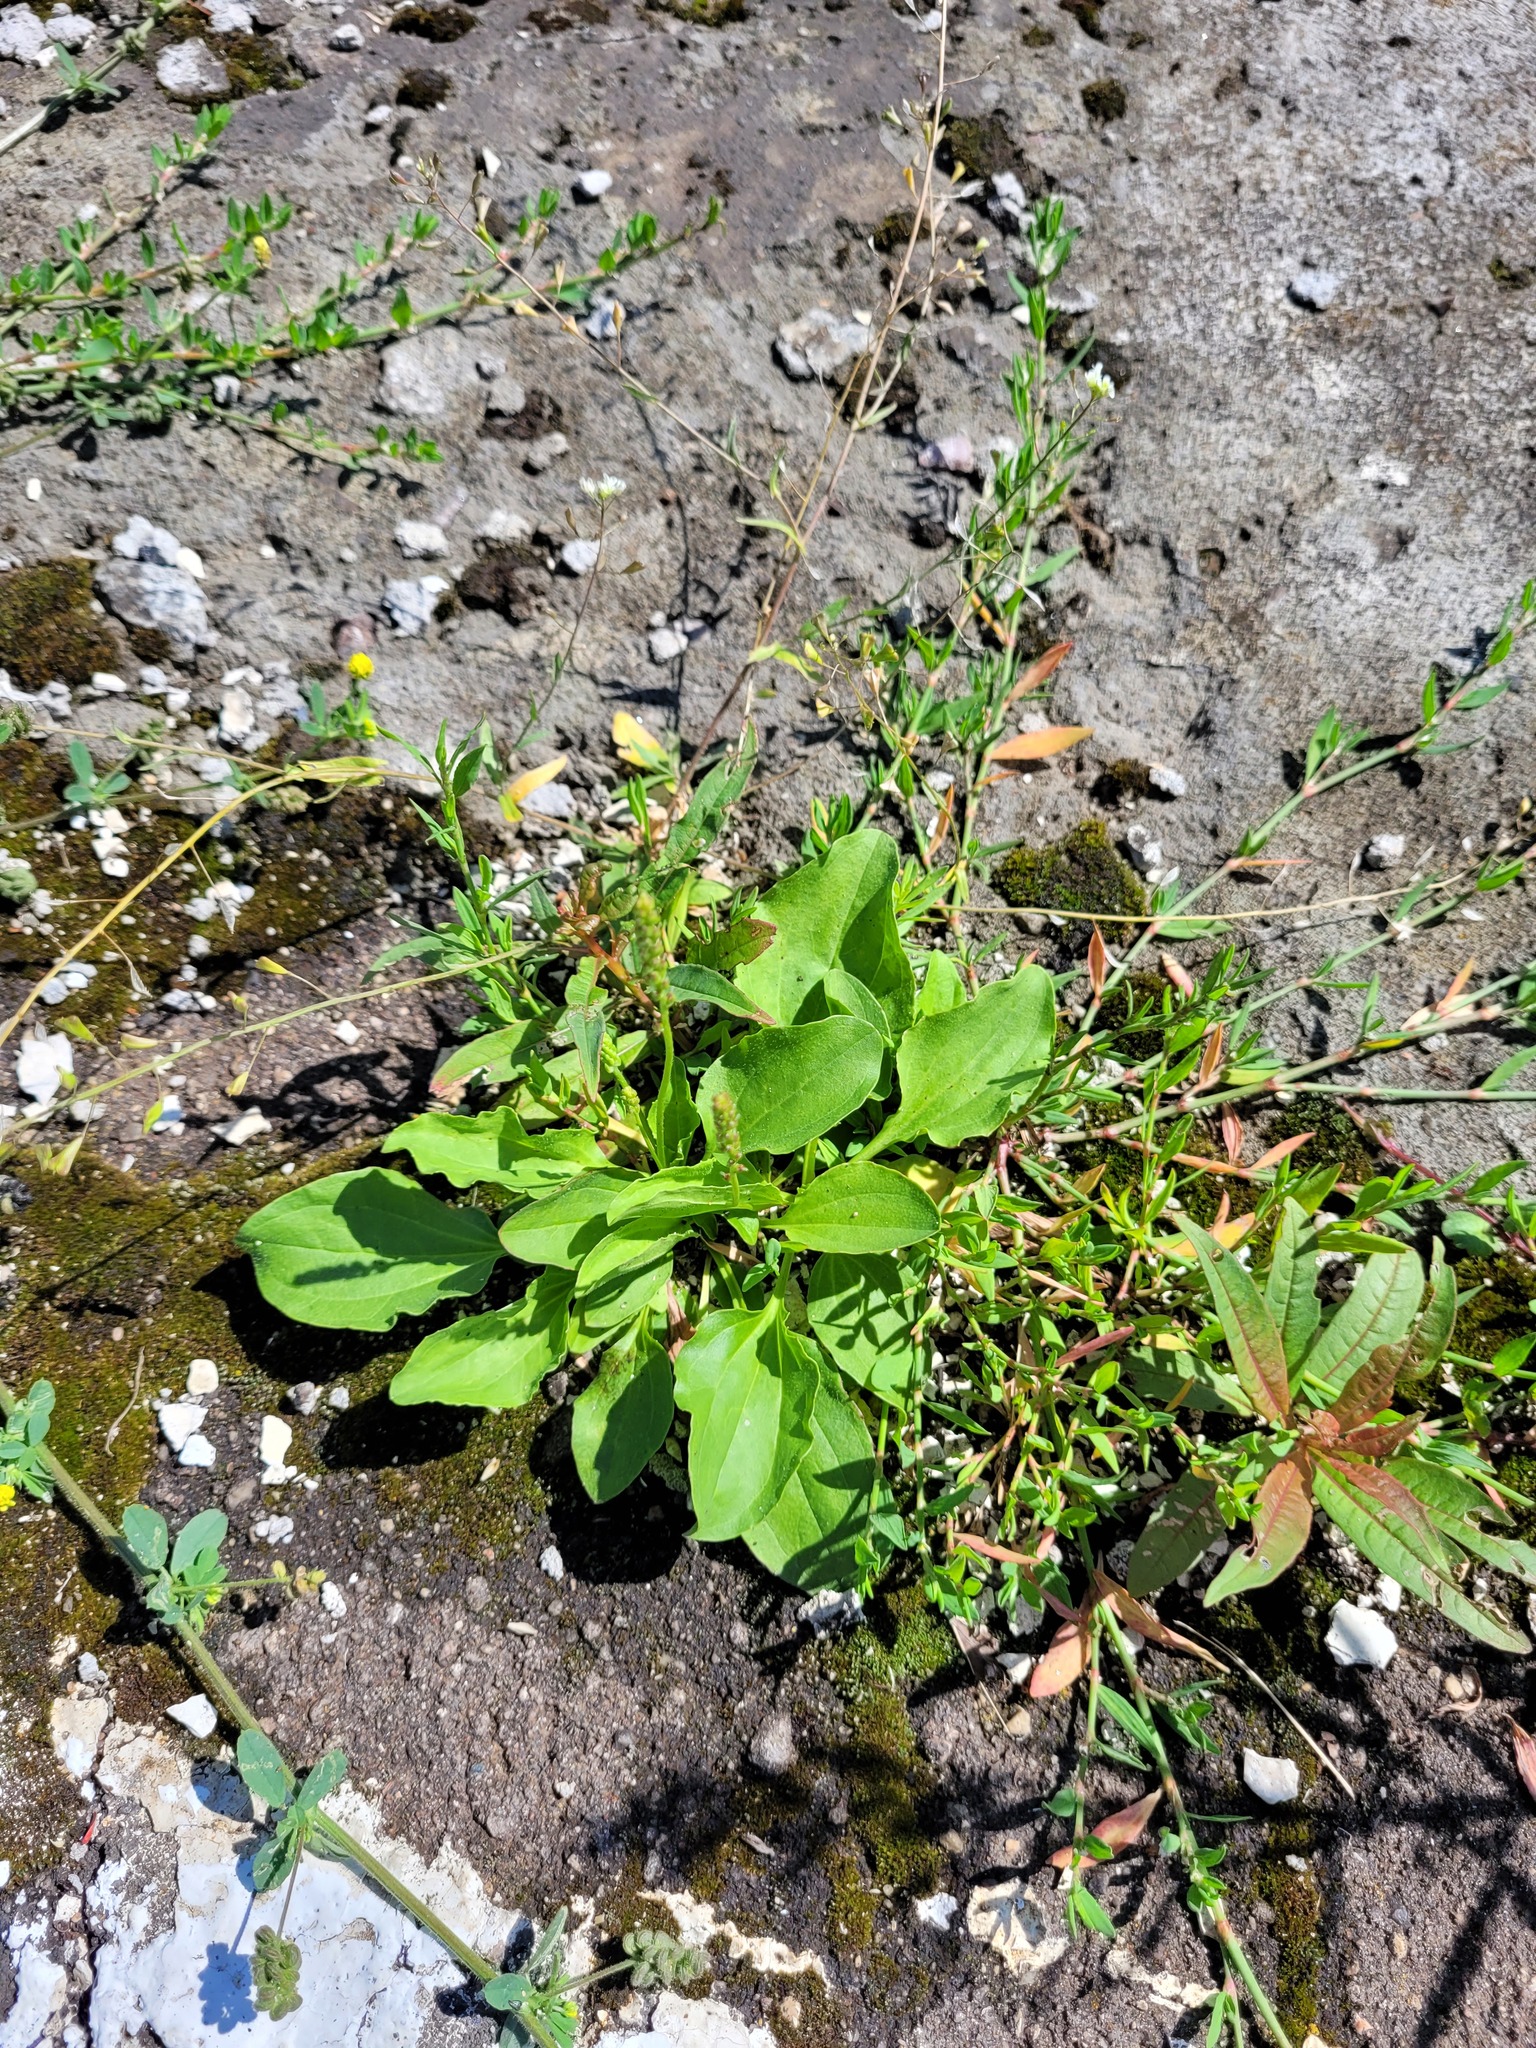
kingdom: Plantae
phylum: Tracheophyta
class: Magnoliopsida
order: Lamiales
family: Plantaginaceae
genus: Plantago
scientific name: Plantago uliginosa
